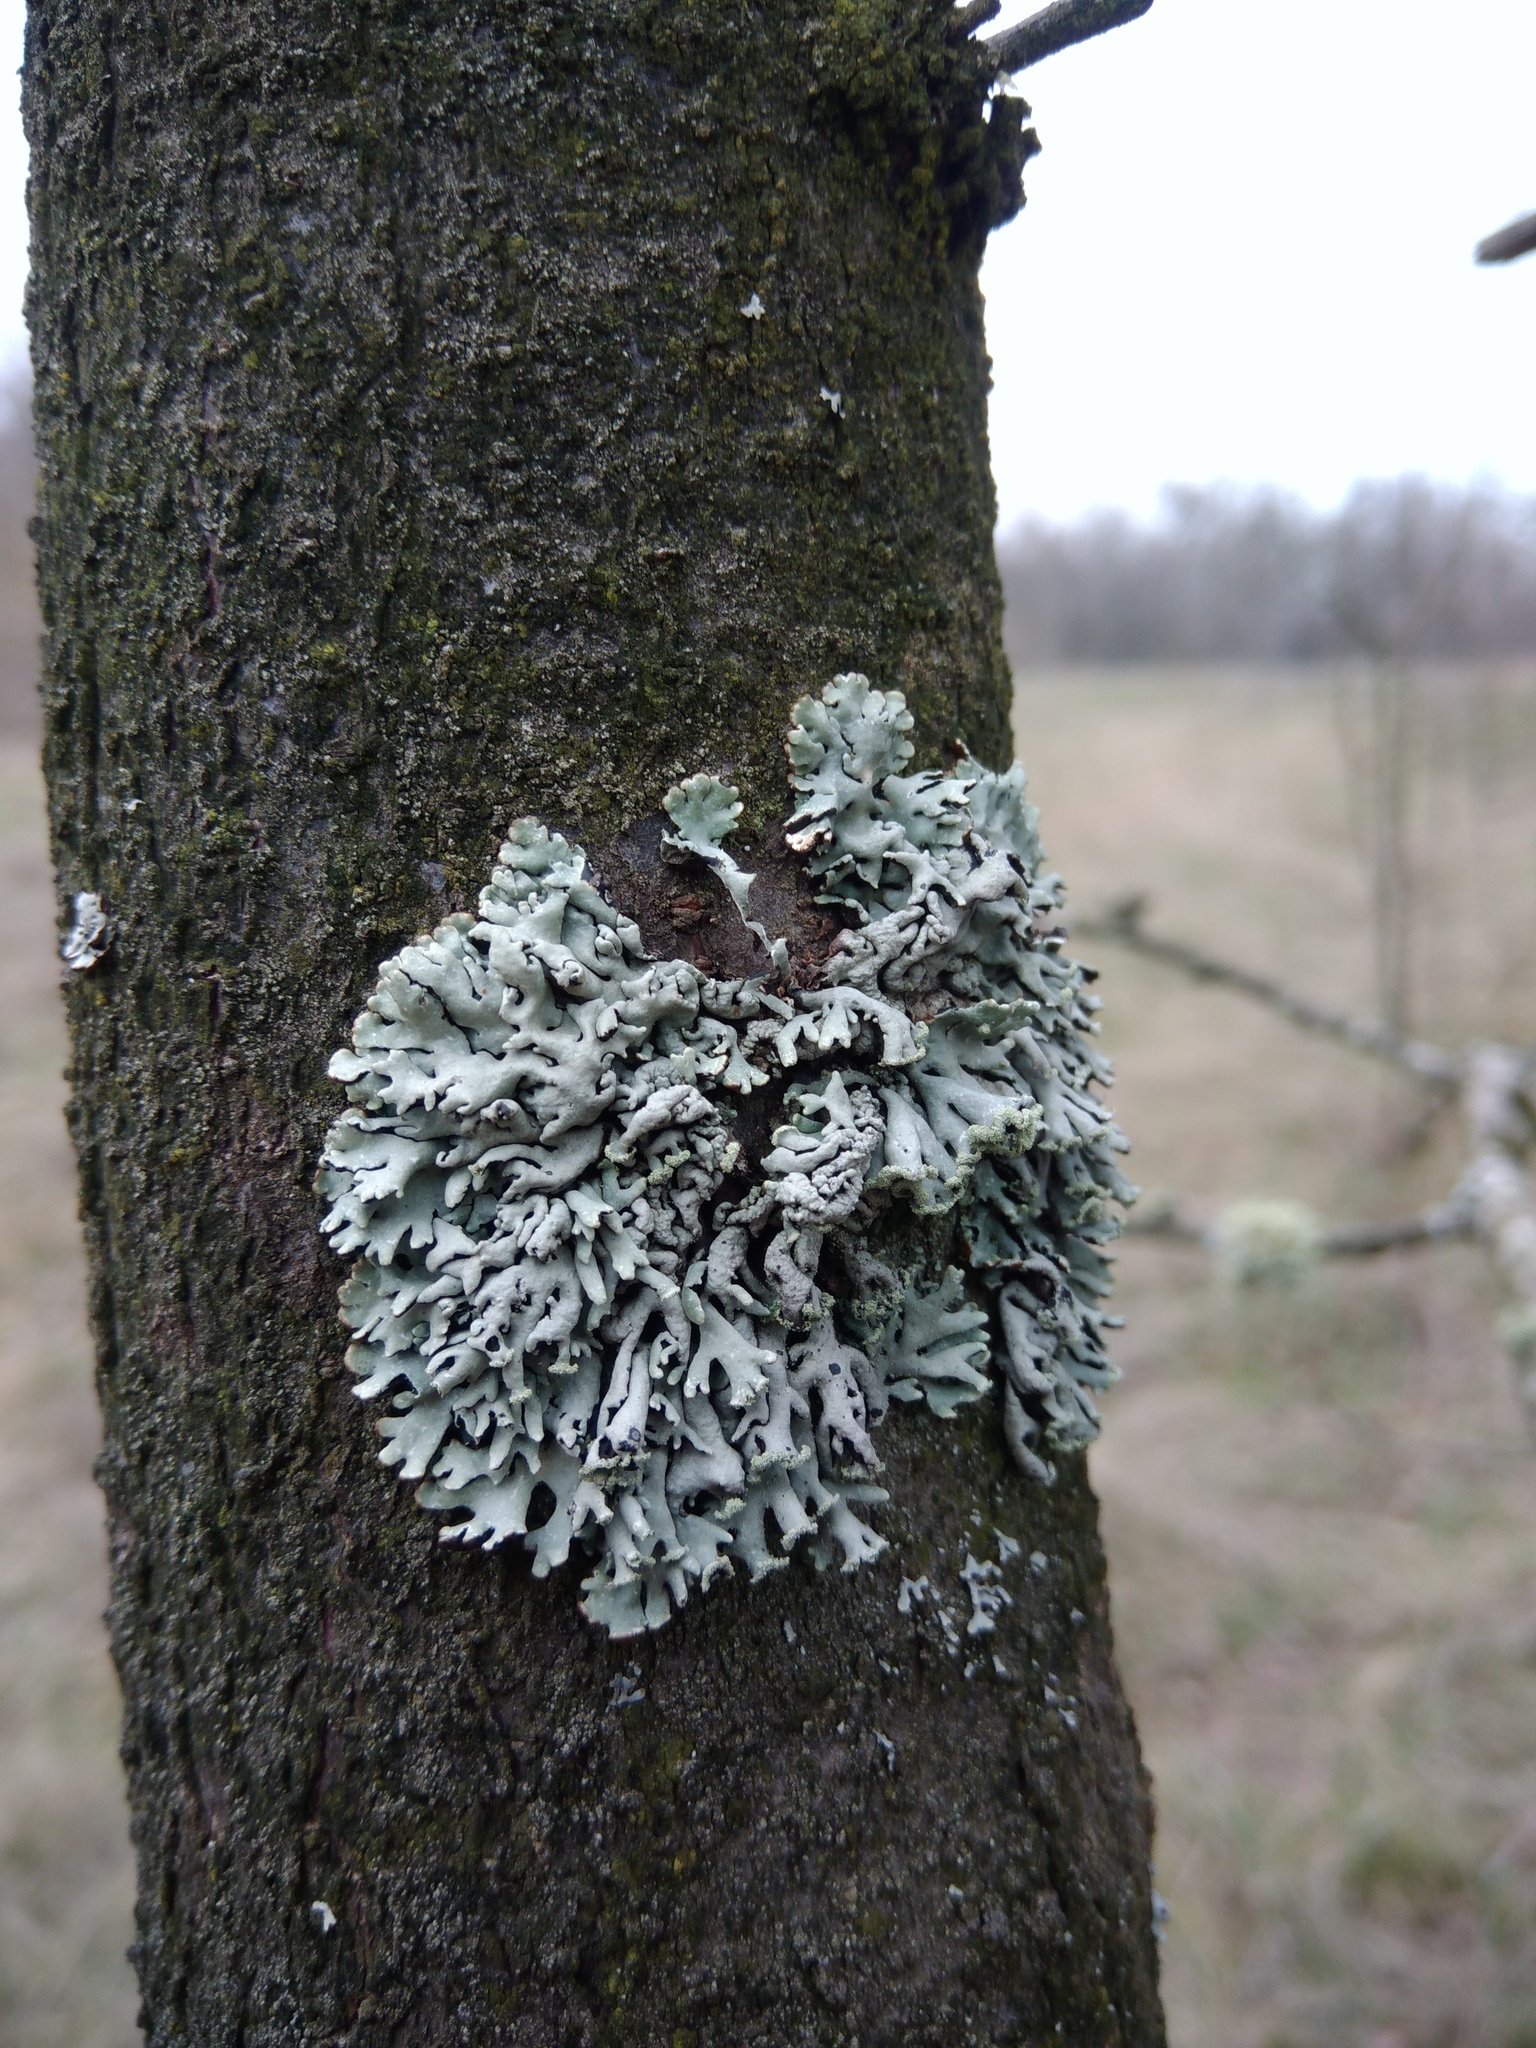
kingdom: Fungi
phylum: Ascomycota
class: Lecanoromycetes
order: Lecanorales
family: Parmeliaceae
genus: Hypogymnia
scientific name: Hypogymnia physodes
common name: Dark crottle
